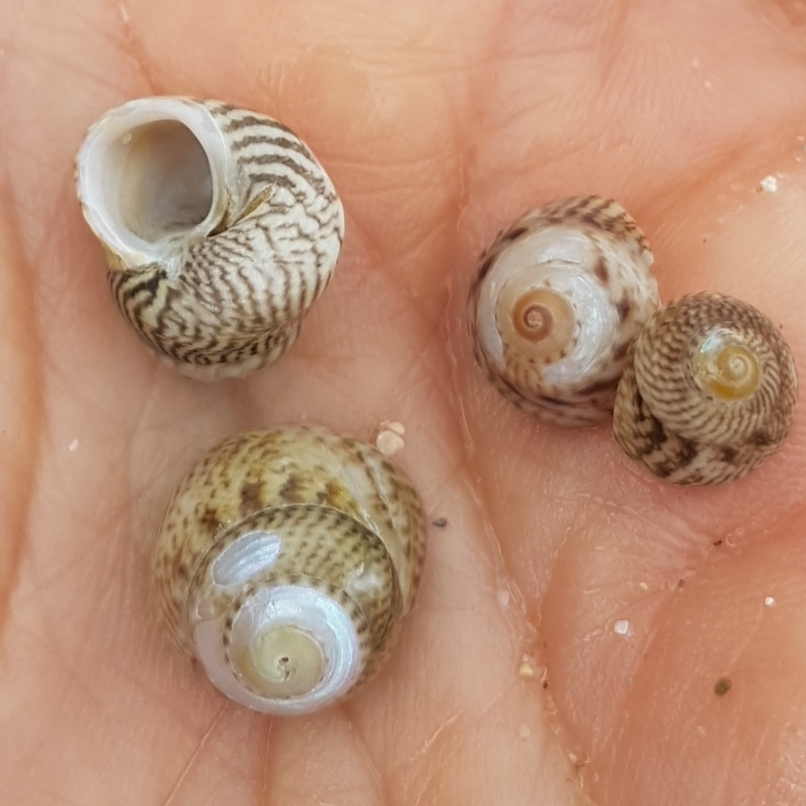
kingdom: Animalia
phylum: Mollusca
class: Gastropoda
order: Trochida
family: Trochidae
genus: Steromphala
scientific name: Steromphala cineraria
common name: Grey top shell
